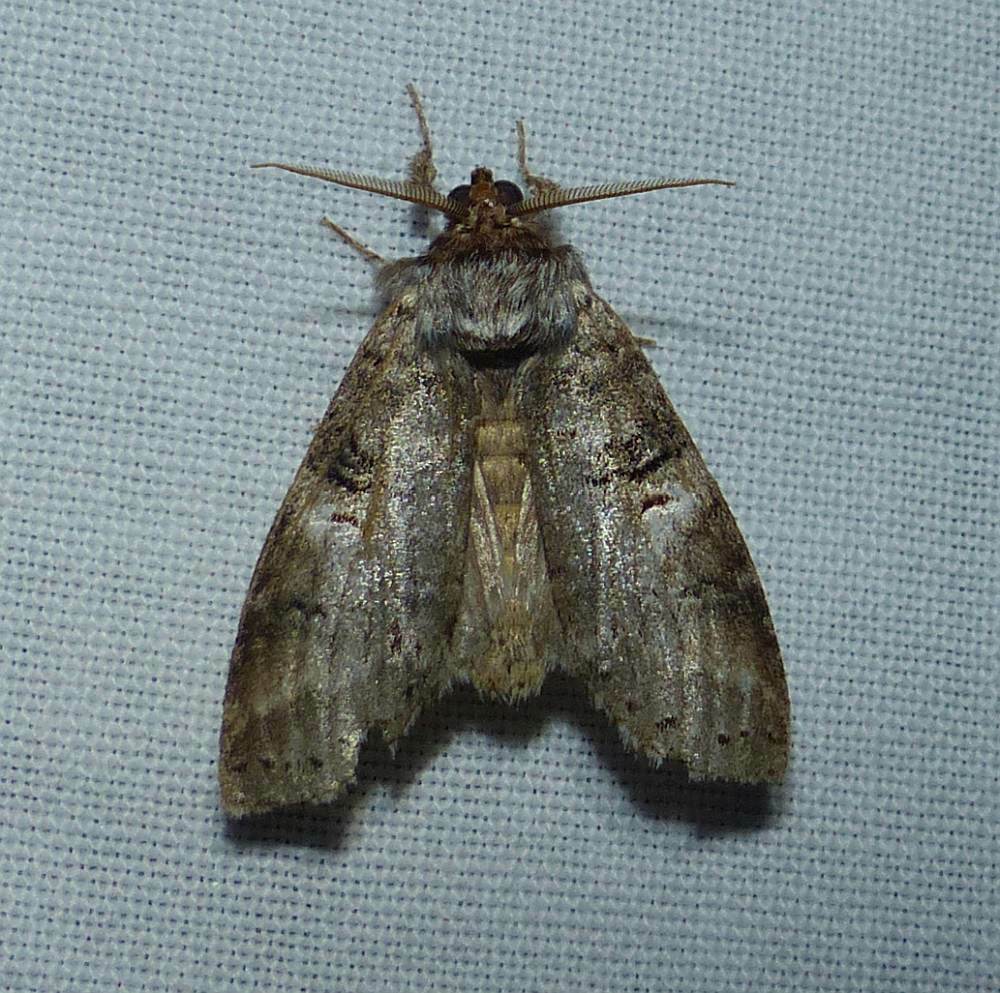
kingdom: Animalia
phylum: Arthropoda
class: Insecta
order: Lepidoptera
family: Notodontidae
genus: Ellida
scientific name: Ellida caniplaga
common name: Linden prominent
